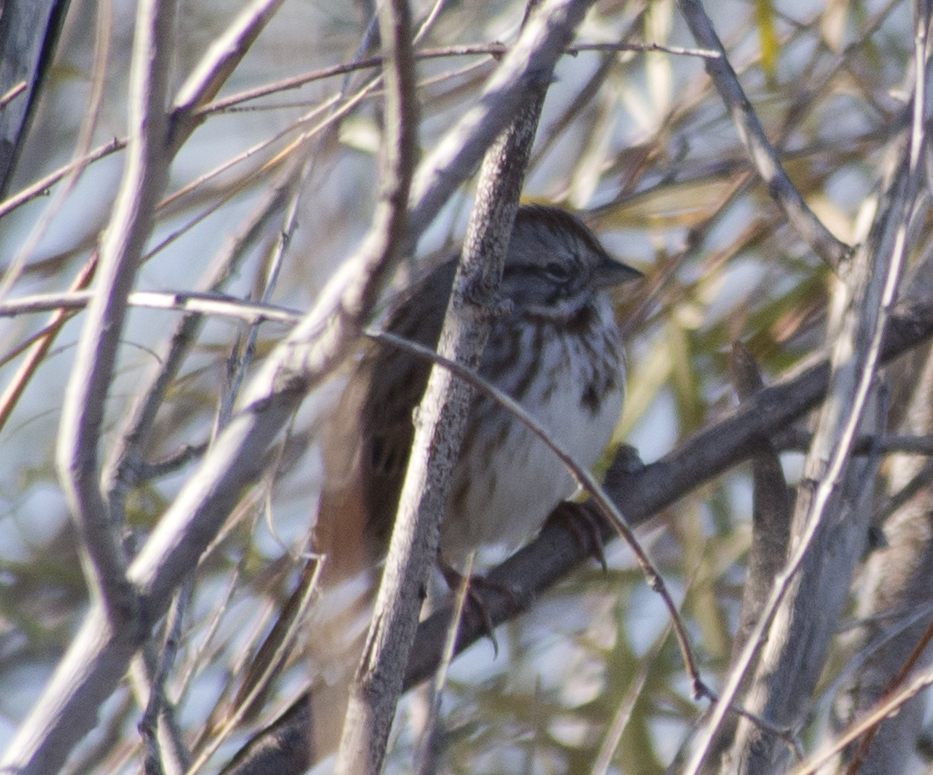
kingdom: Animalia
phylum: Chordata
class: Aves
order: Passeriformes
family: Passerellidae
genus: Melospiza
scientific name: Melospiza melodia
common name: Song sparrow
